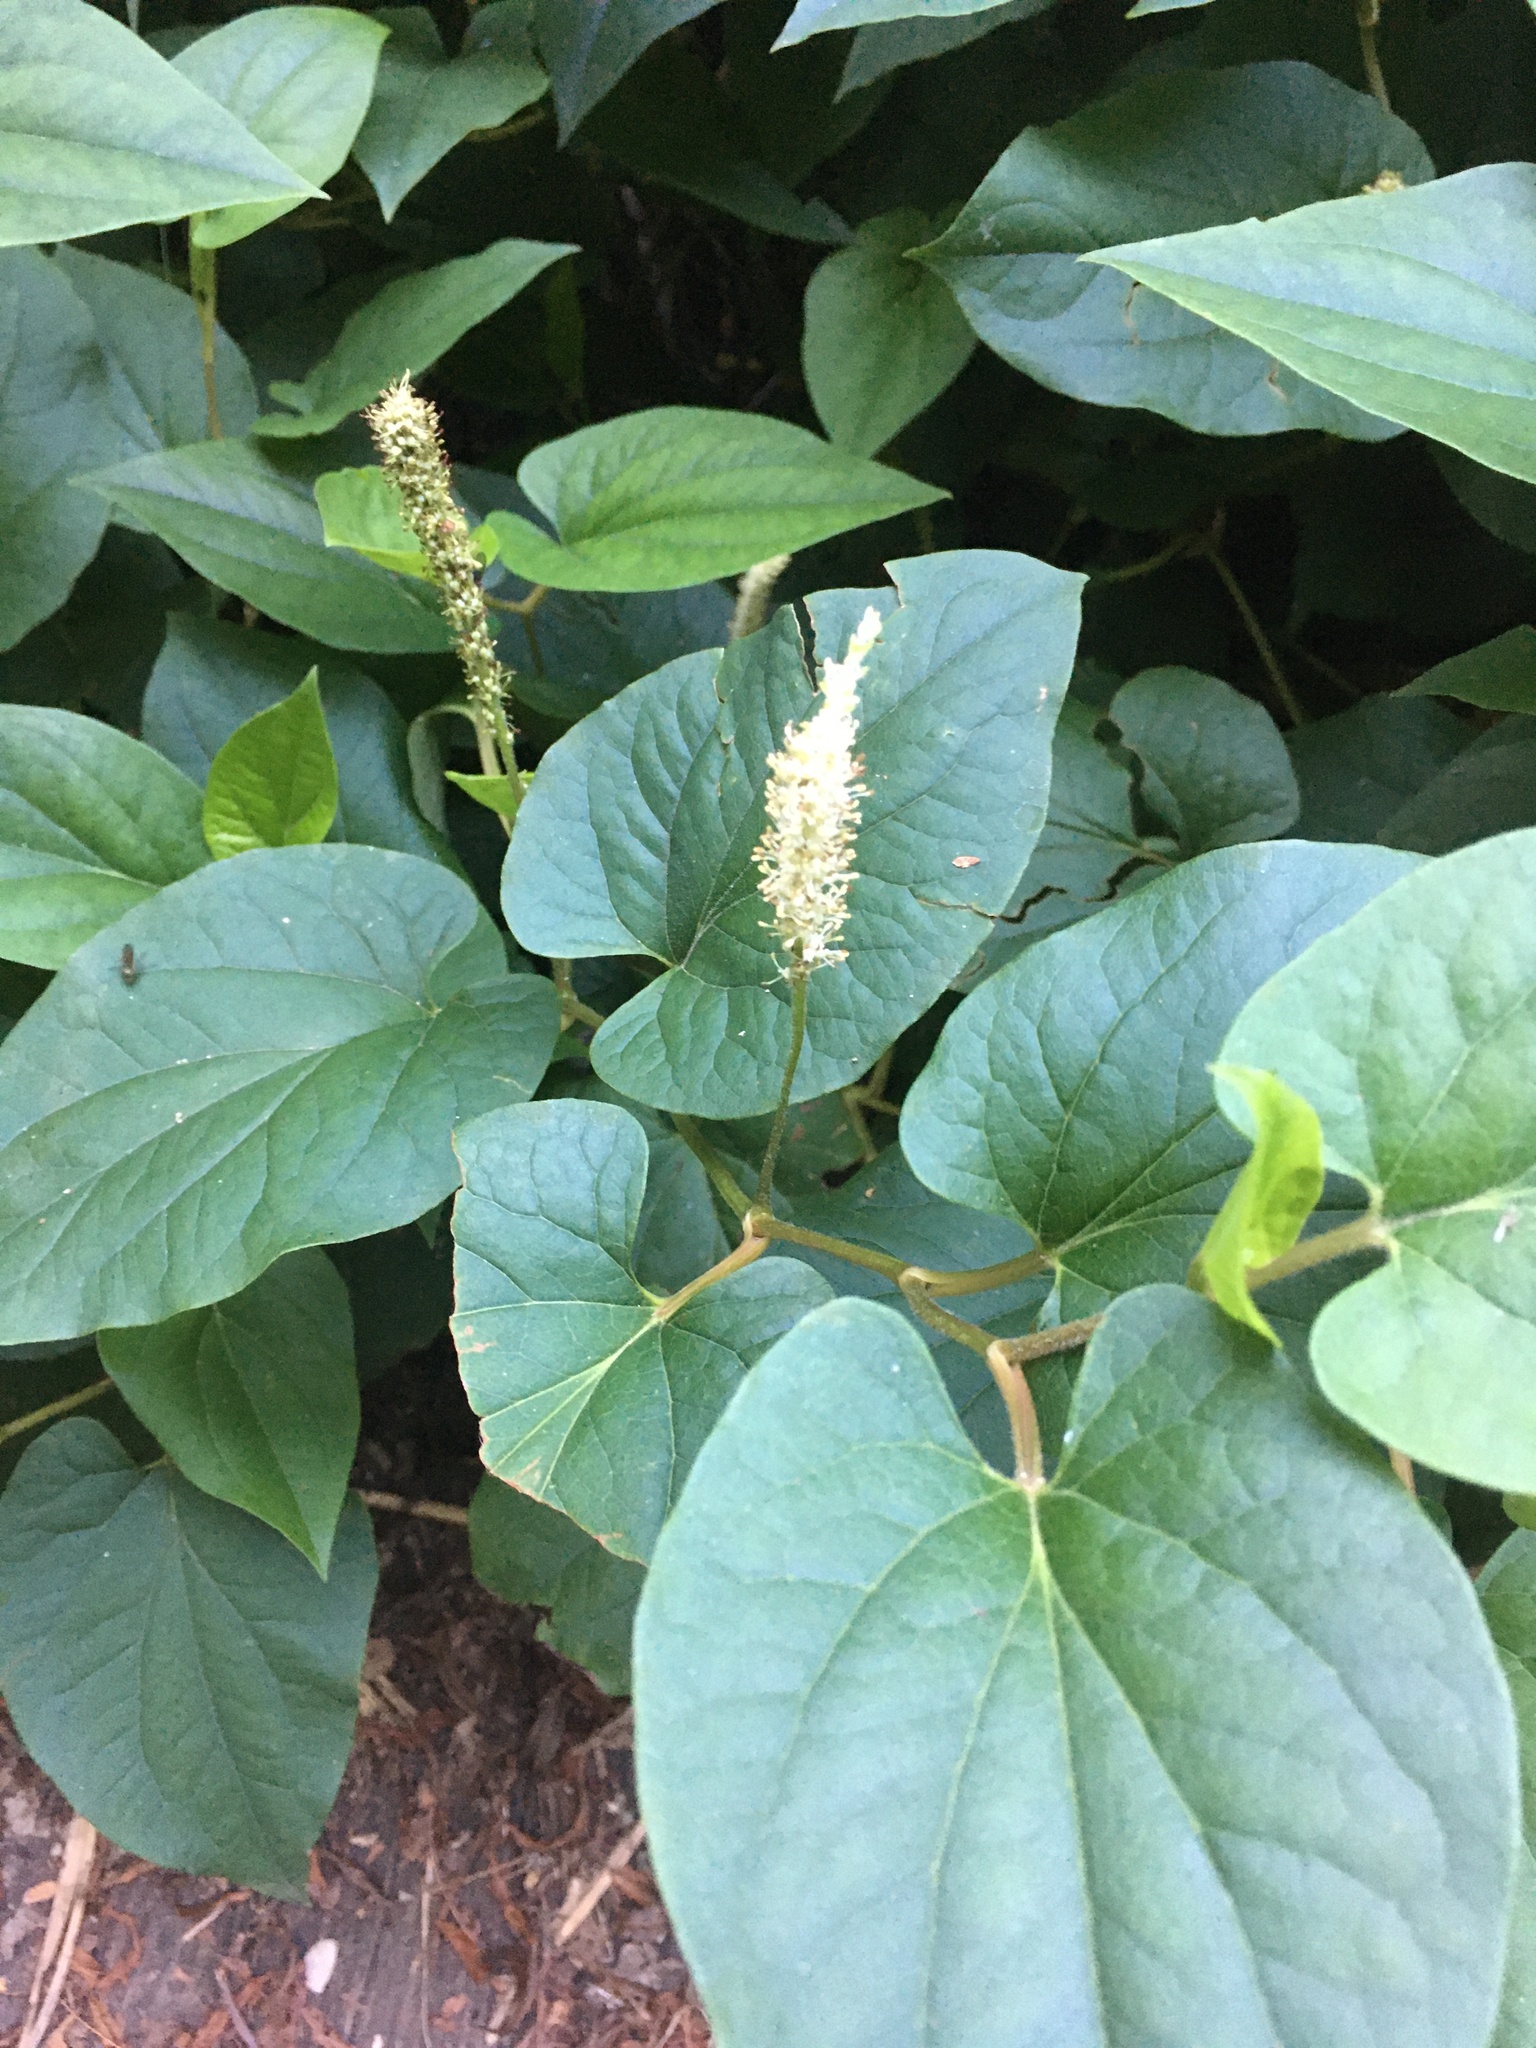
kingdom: Plantae
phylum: Tracheophyta
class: Magnoliopsida
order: Piperales
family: Saururaceae
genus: Saururus
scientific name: Saururus cernuus
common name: Lizard's-tail
